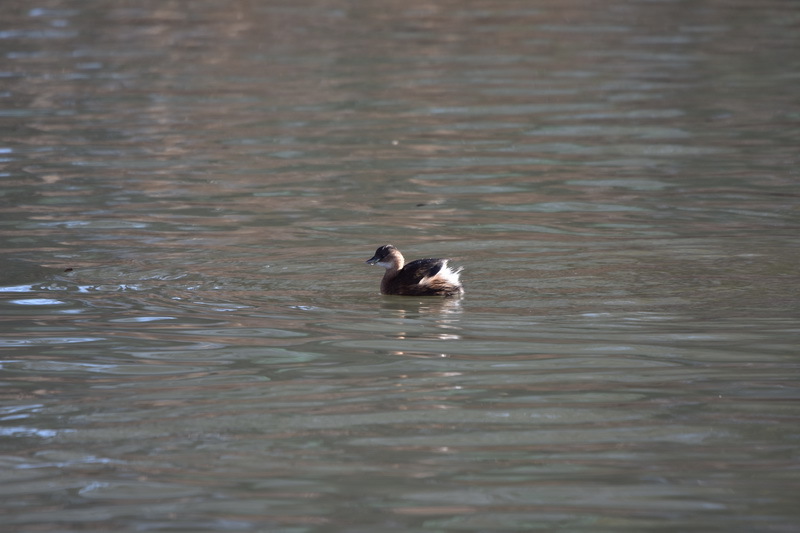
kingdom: Animalia
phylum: Chordata
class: Aves
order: Podicipediformes
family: Podicipedidae
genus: Tachybaptus
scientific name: Tachybaptus ruficollis
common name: Little grebe
